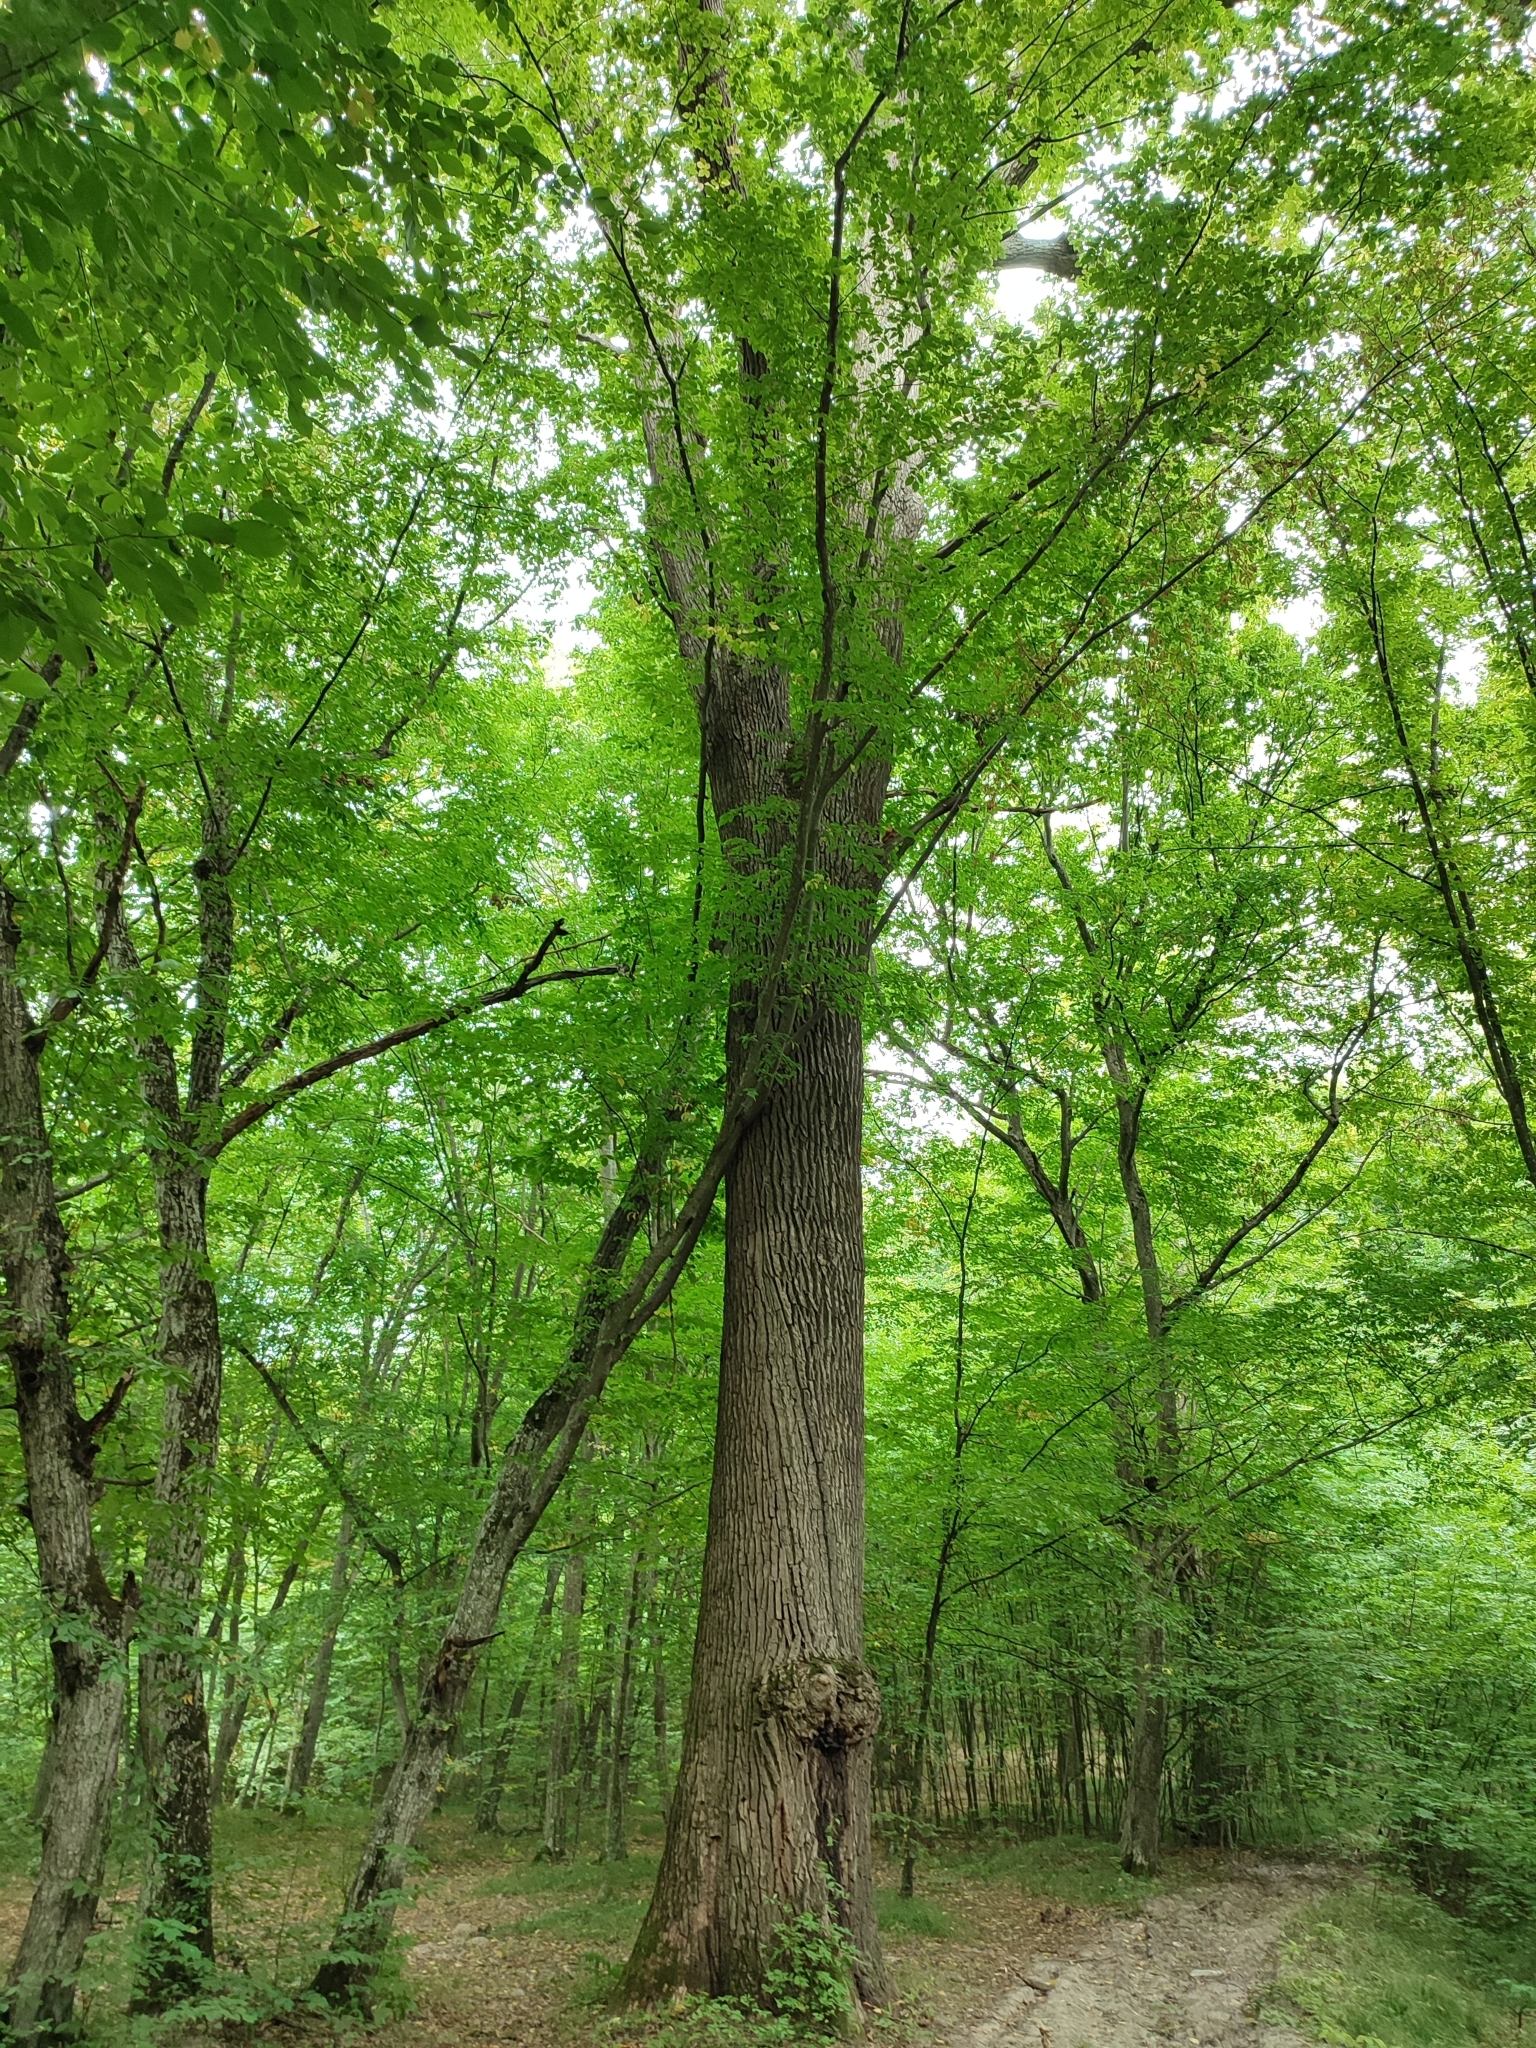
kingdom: Plantae
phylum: Tracheophyta
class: Magnoliopsida
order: Fagales
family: Fagaceae
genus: Quercus
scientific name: Quercus robur
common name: Pedunculate oak
